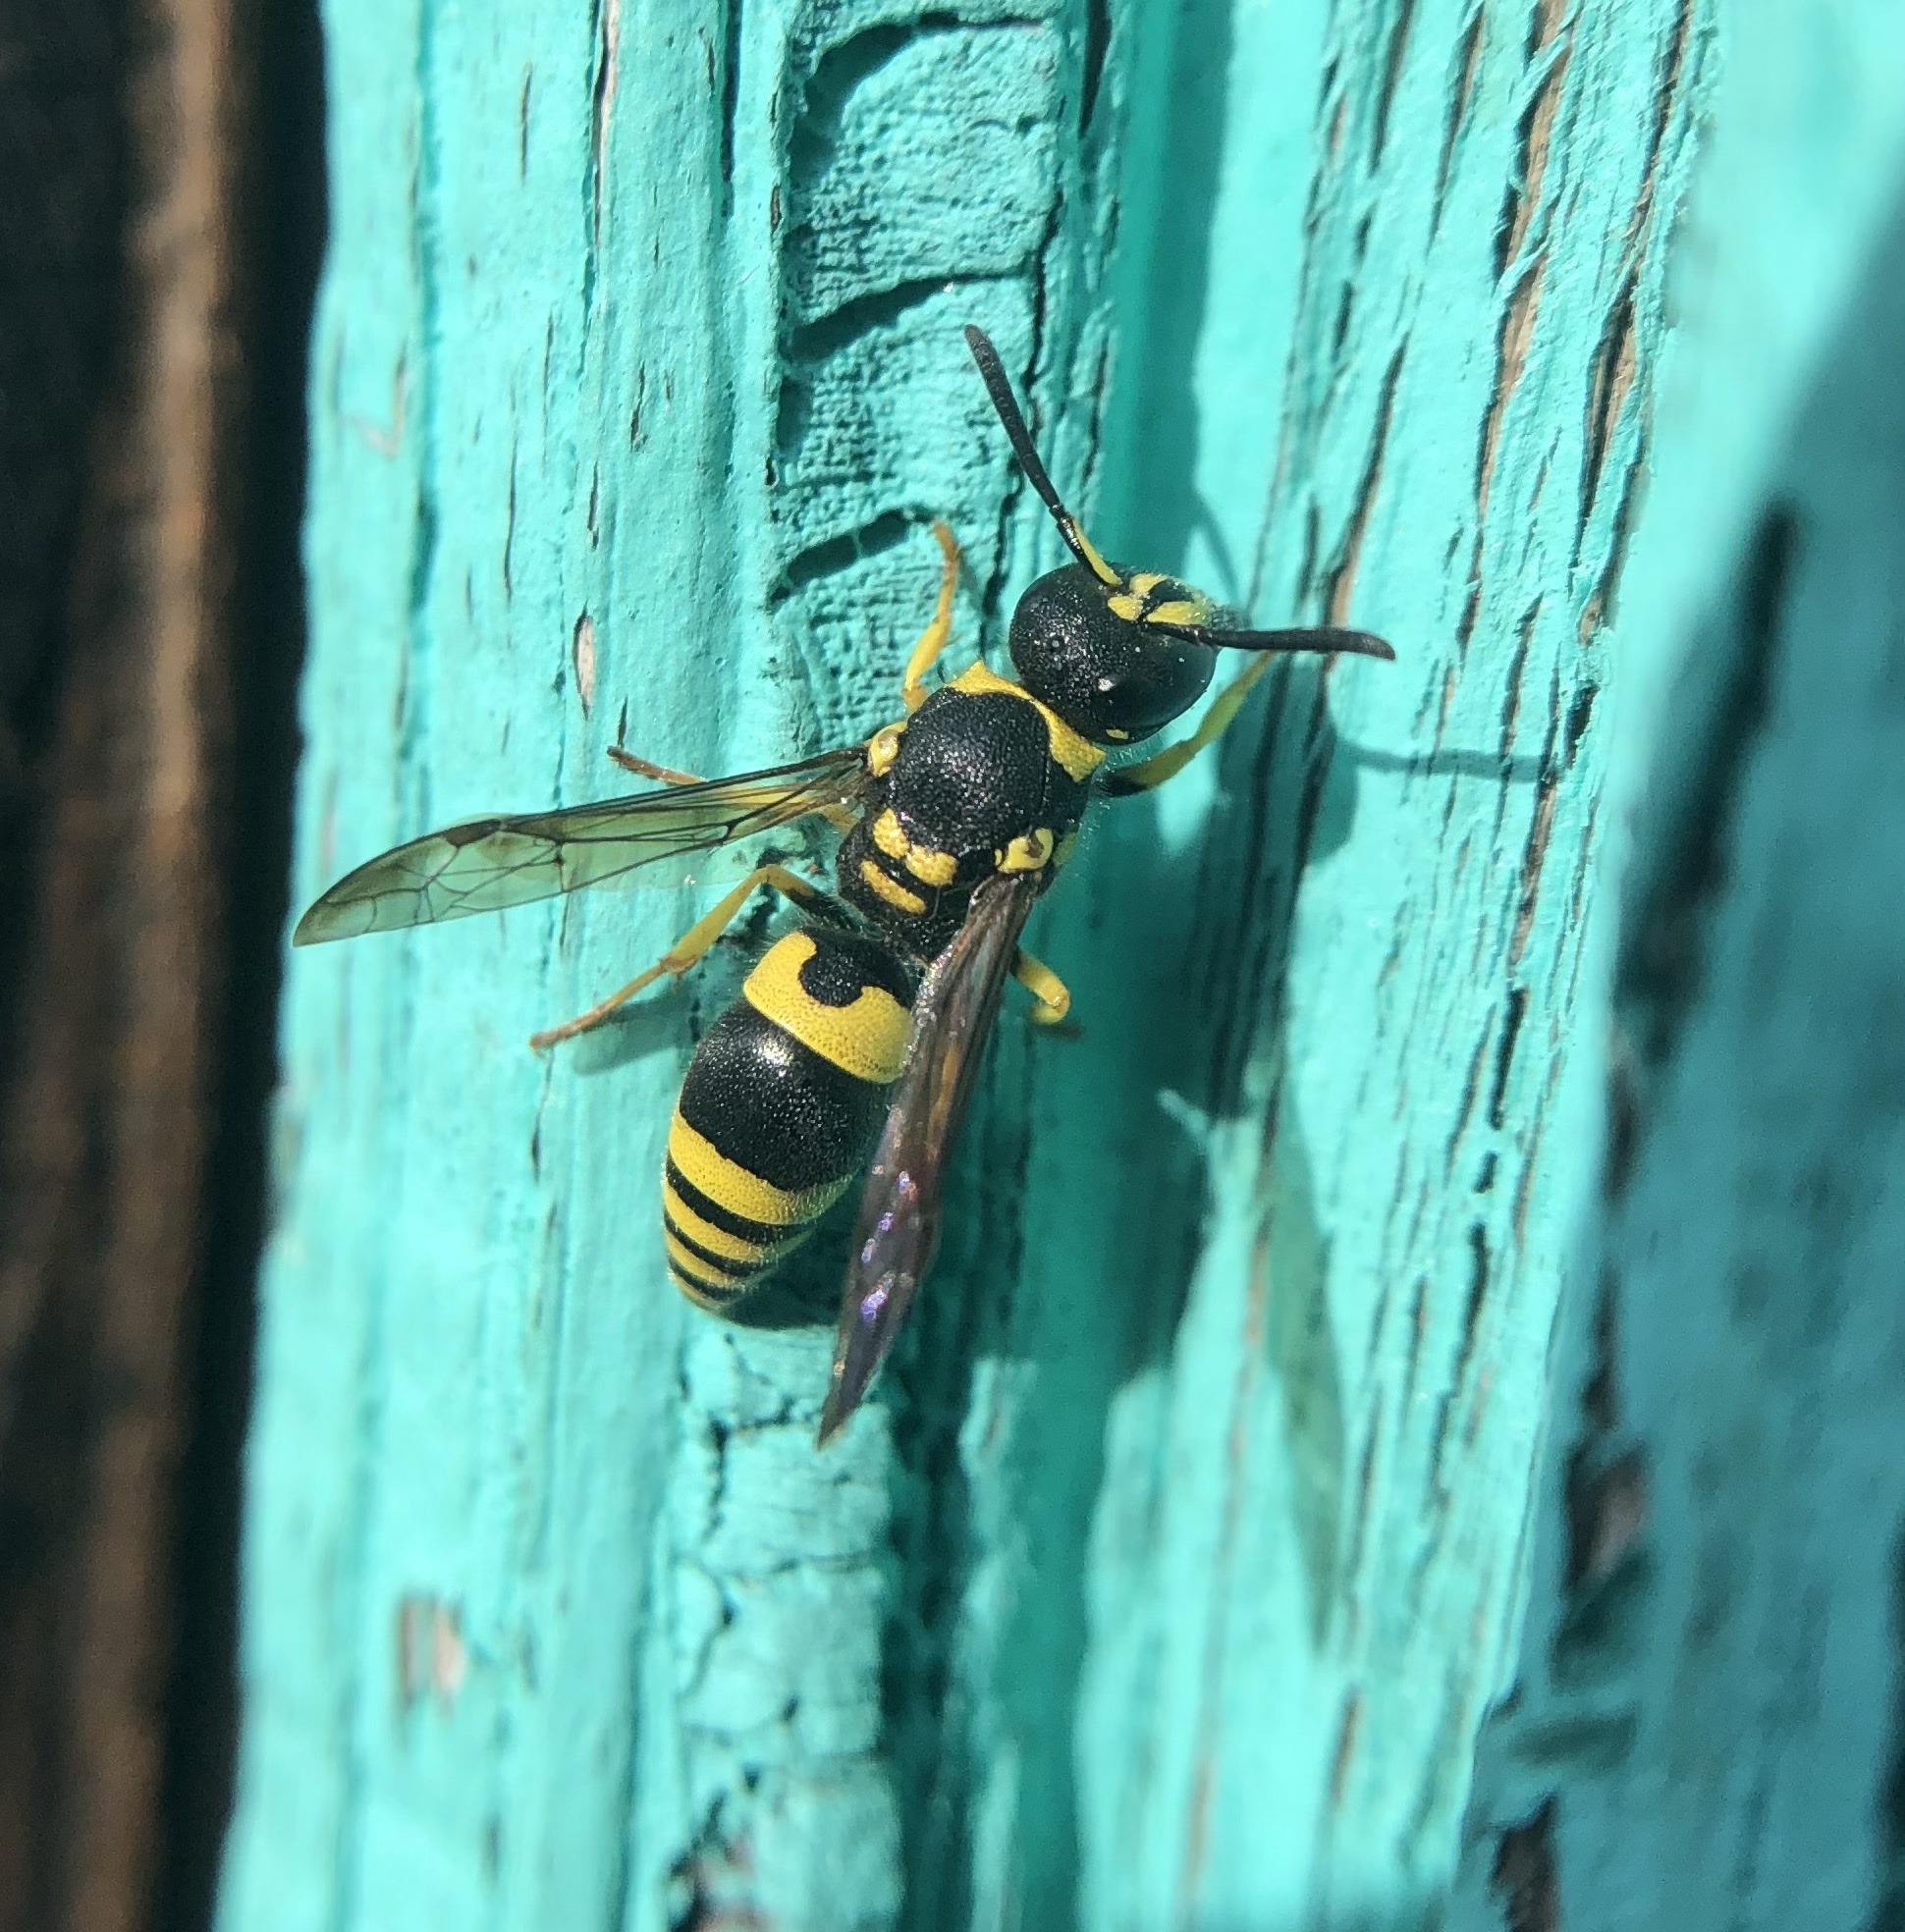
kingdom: Animalia
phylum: Arthropoda
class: Insecta
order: Hymenoptera
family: Vespidae
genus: Ancistrocerus
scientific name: Ancistrocerus gazella
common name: European tube wasp
